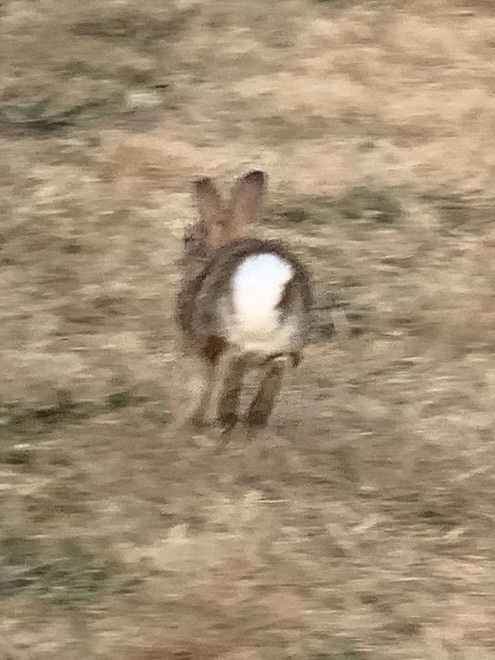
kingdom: Animalia
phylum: Chordata
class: Mammalia
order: Lagomorpha
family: Leporidae
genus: Sylvilagus
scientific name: Sylvilagus floridanus
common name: Eastern cottontail
